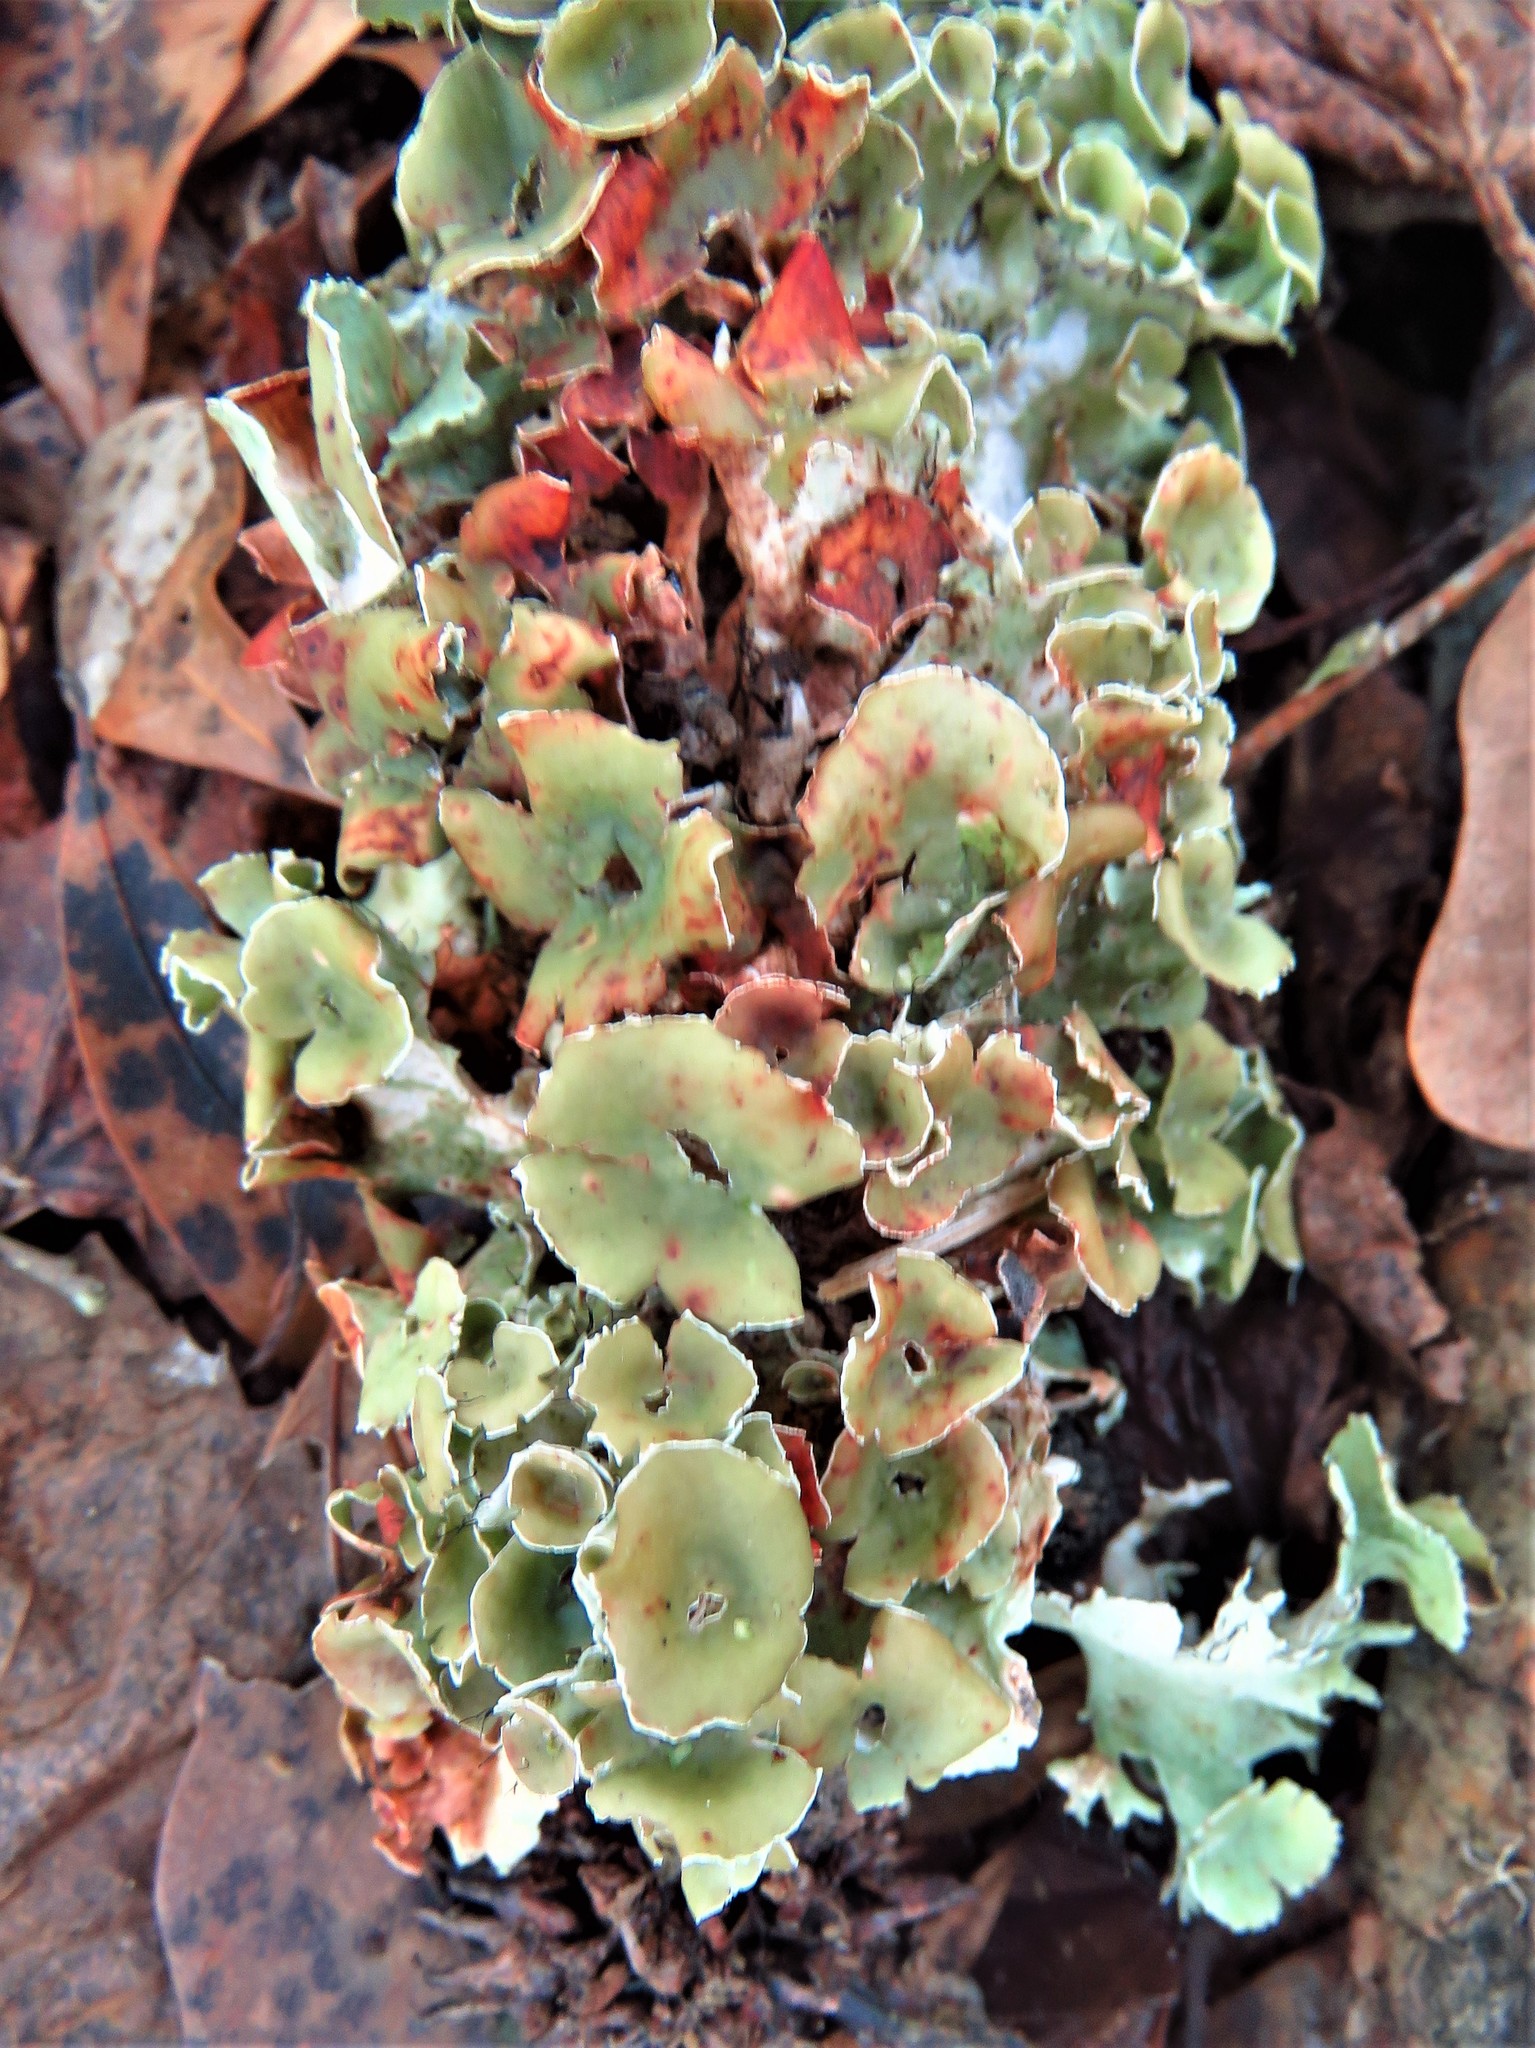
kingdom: Fungi
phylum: Ascomycota
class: Lecanoromycetes
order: Lecanorales
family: Parmeliaceae
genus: Parmotrema
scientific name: Parmotrema perforatum
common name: Perforated ruffle lichen
